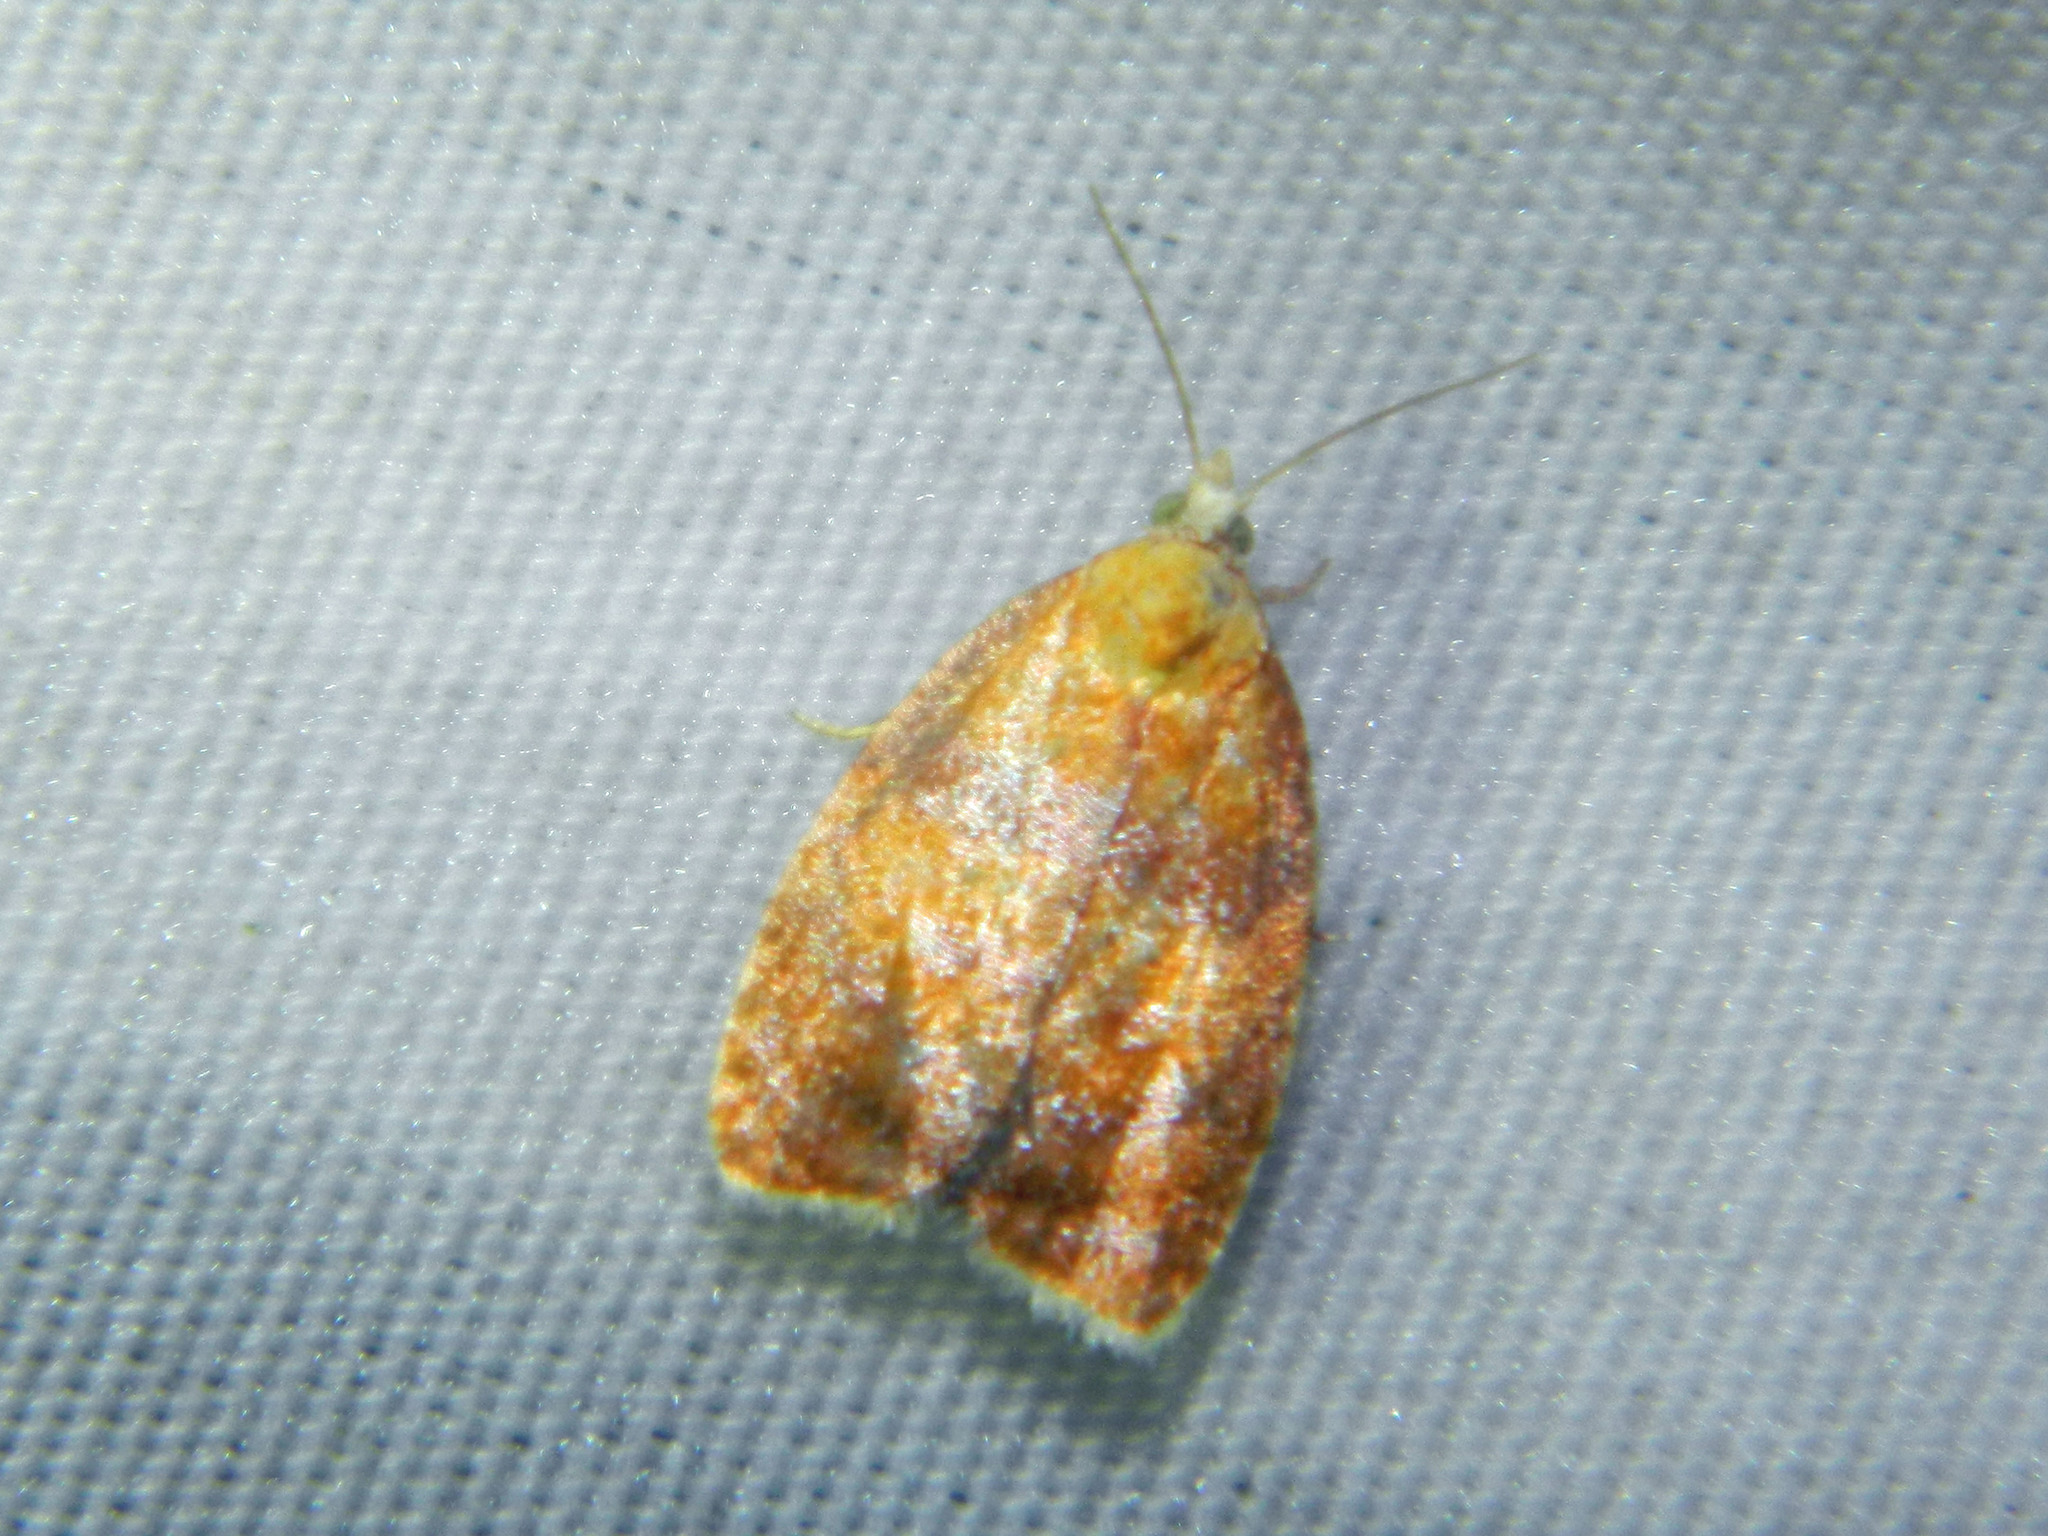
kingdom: Animalia
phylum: Arthropoda
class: Insecta
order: Lepidoptera
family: Tortricidae
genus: Acleris
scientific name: Acleris curvalana
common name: Blueberry leaftier moth
